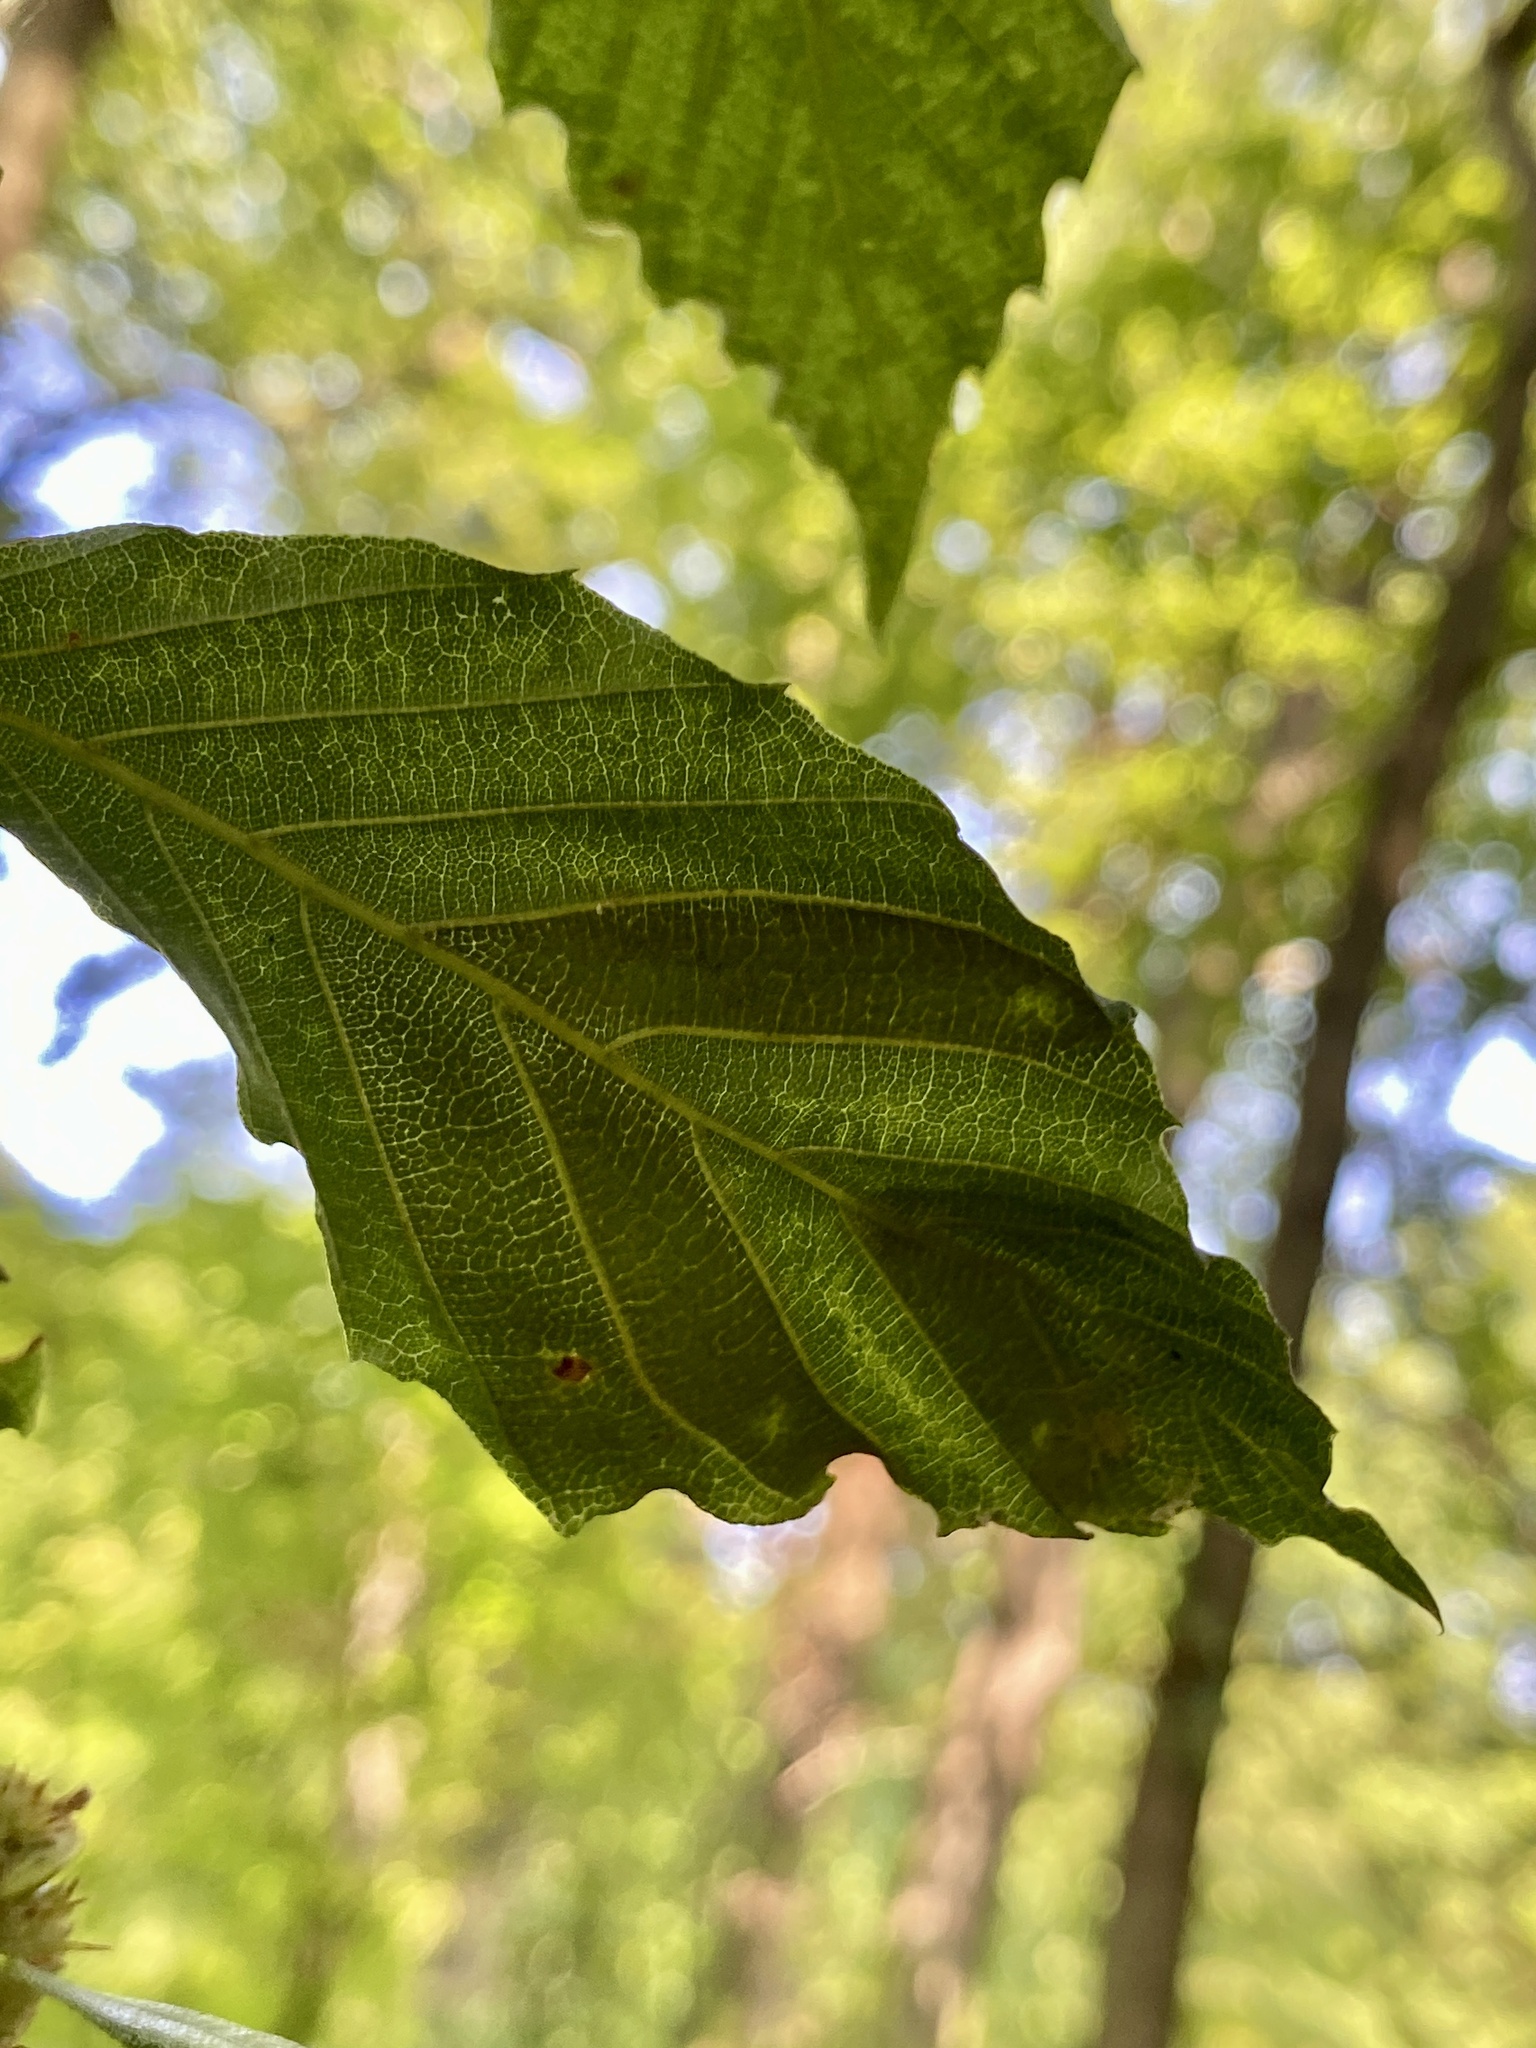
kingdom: Animalia
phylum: Nematoda
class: Chromadorea
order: Rhabditida
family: Anguinidae
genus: Litylenchus
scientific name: Litylenchus crenatae
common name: Beech leaf disease
